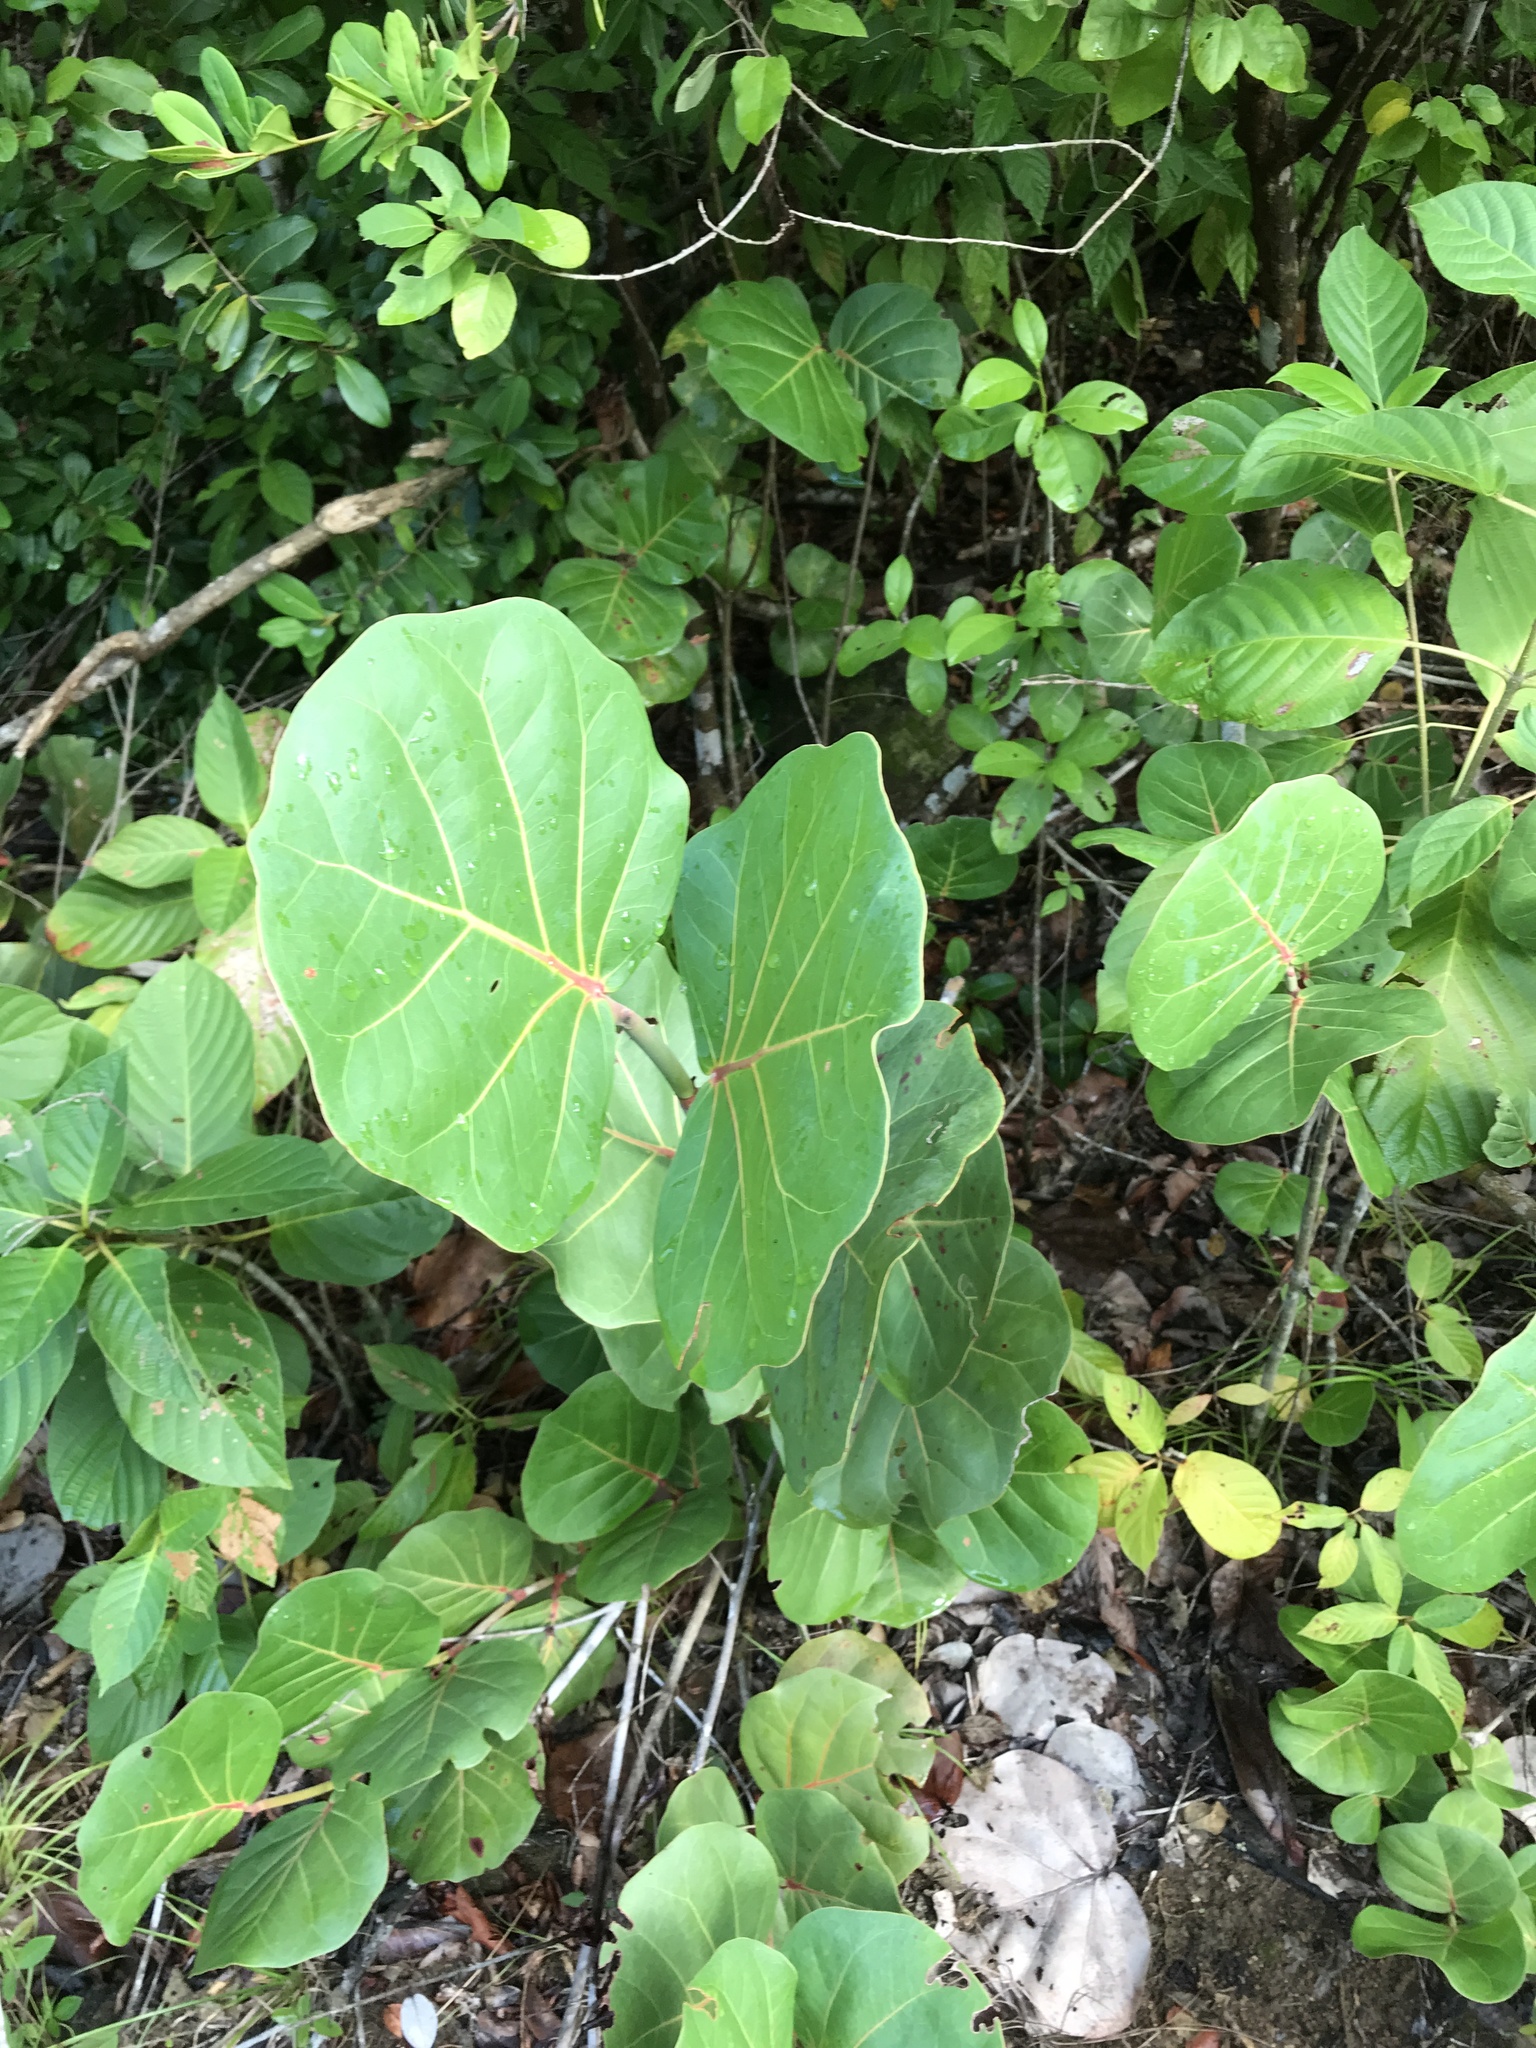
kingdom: Plantae
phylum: Tracheophyta
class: Magnoliopsida
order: Caryophyllales
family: Polygonaceae
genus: Coccoloba
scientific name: Coccoloba uvifera
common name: Seagrape
